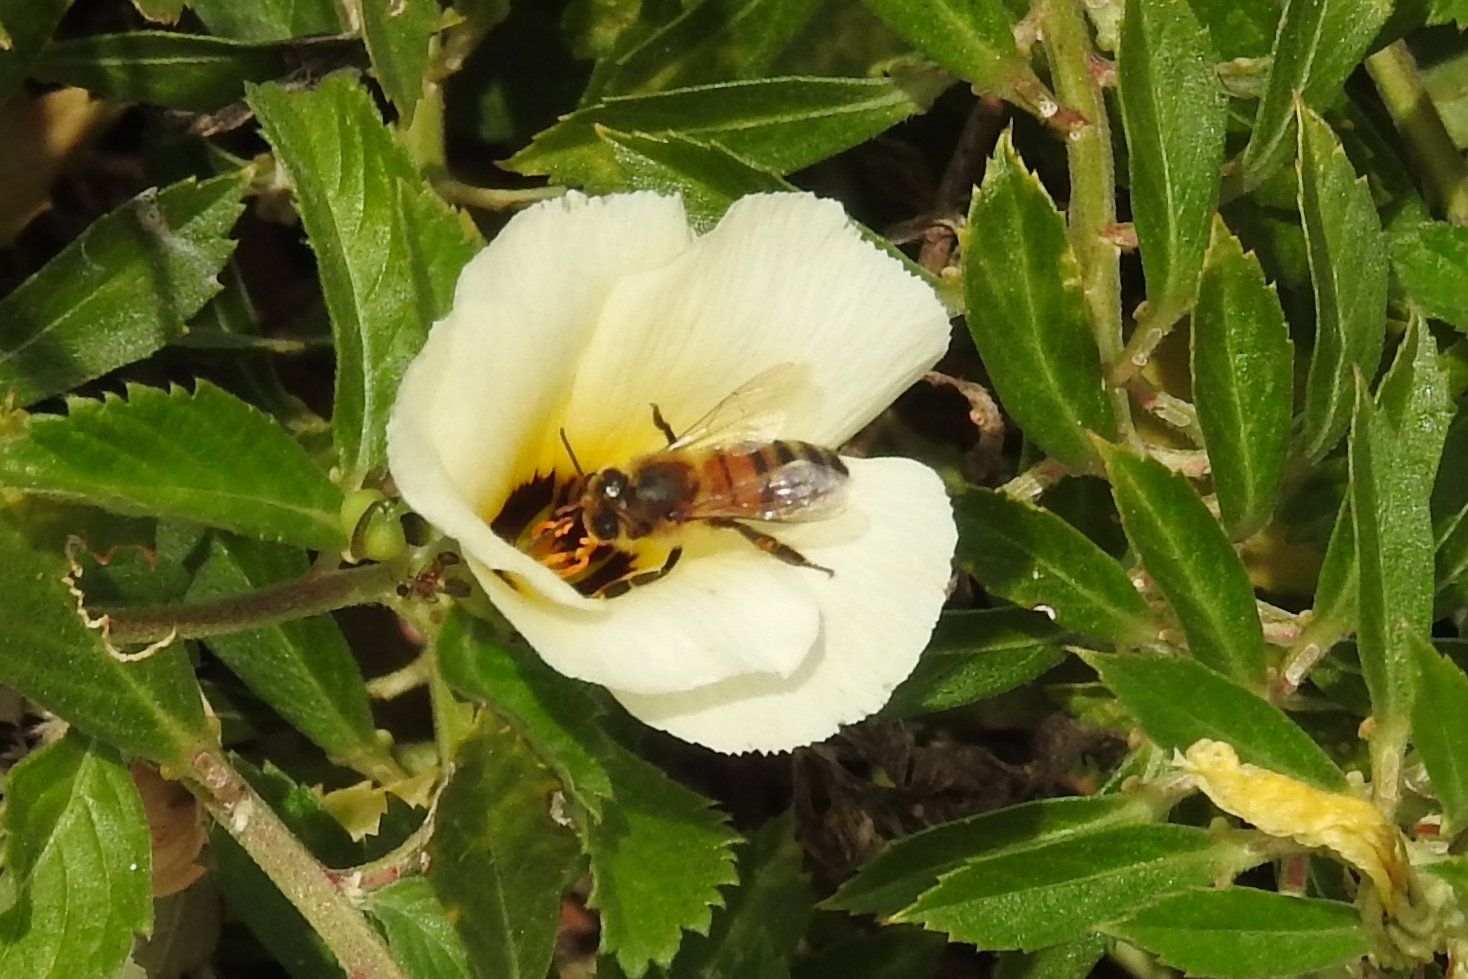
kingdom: Animalia
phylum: Arthropoda
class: Insecta
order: Hymenoptera
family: Apidae
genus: Apis
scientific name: Apis mellifera
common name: Honey bee
